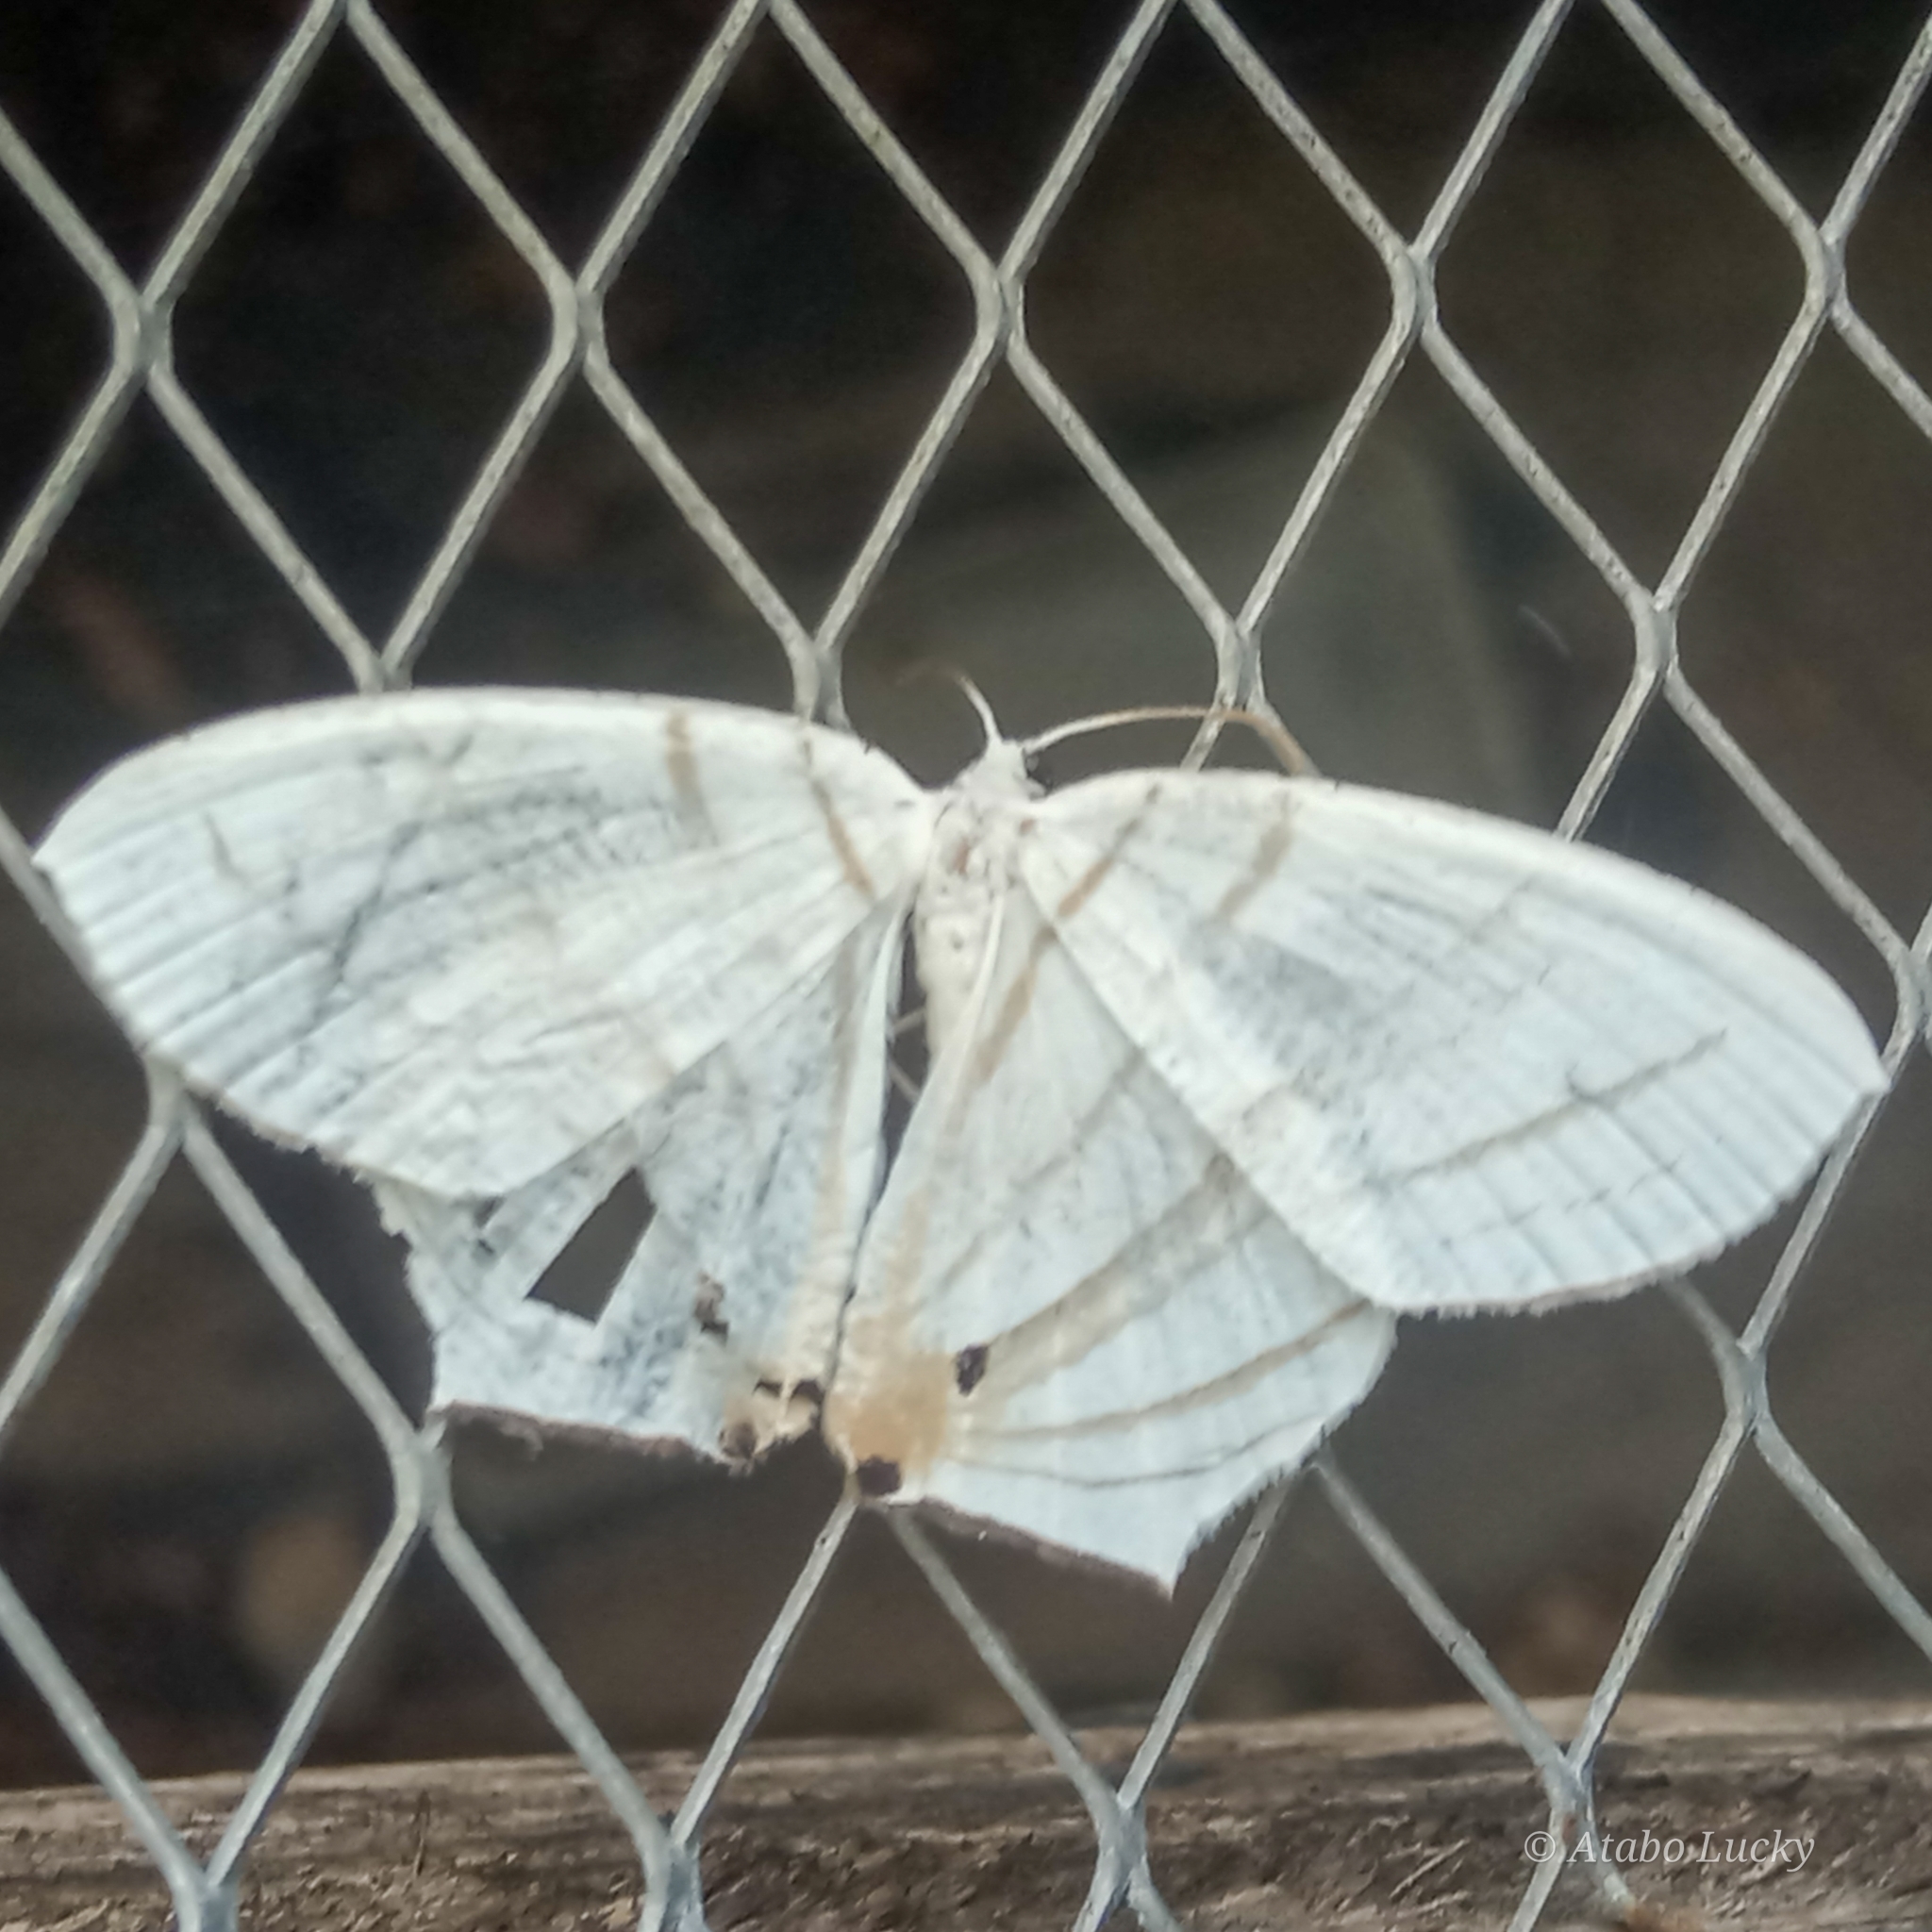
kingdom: Animalia
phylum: Arthropoda
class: Insecta
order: Lepidoptera
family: Uraniidae
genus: Dissoprumna
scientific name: Dissoprumna erycinaria
